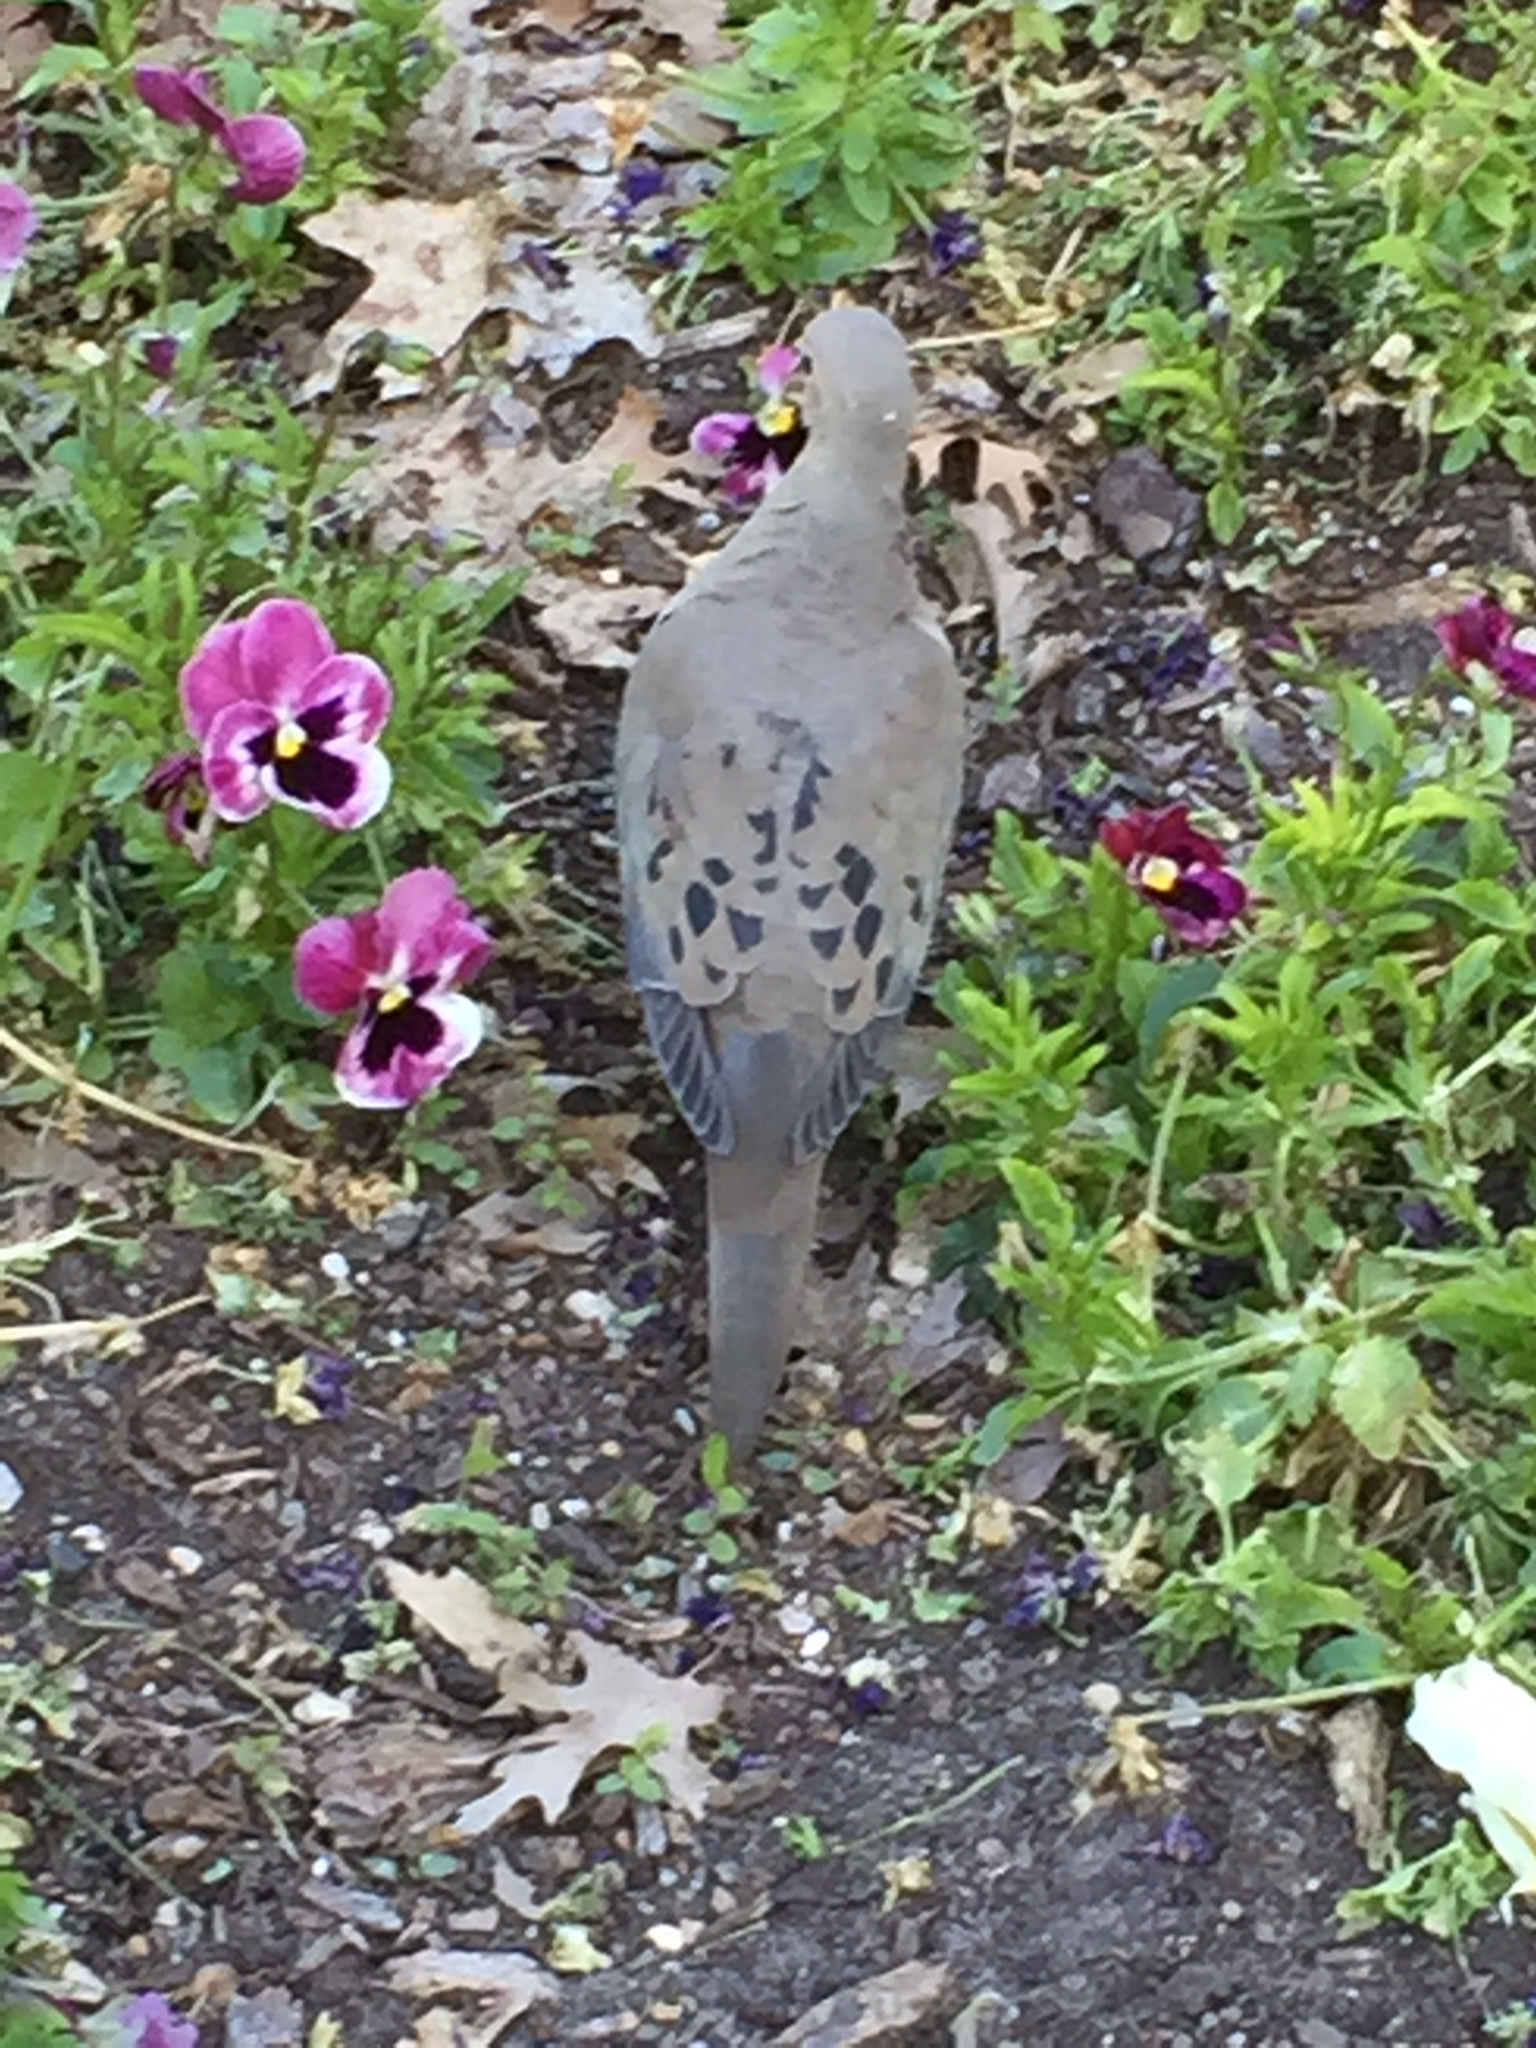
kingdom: Animalia
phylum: Chordata
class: Aves
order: Columbiformes
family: Columbidae
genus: Zenaida
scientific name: Zenaida macroura
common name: Mourning dove
